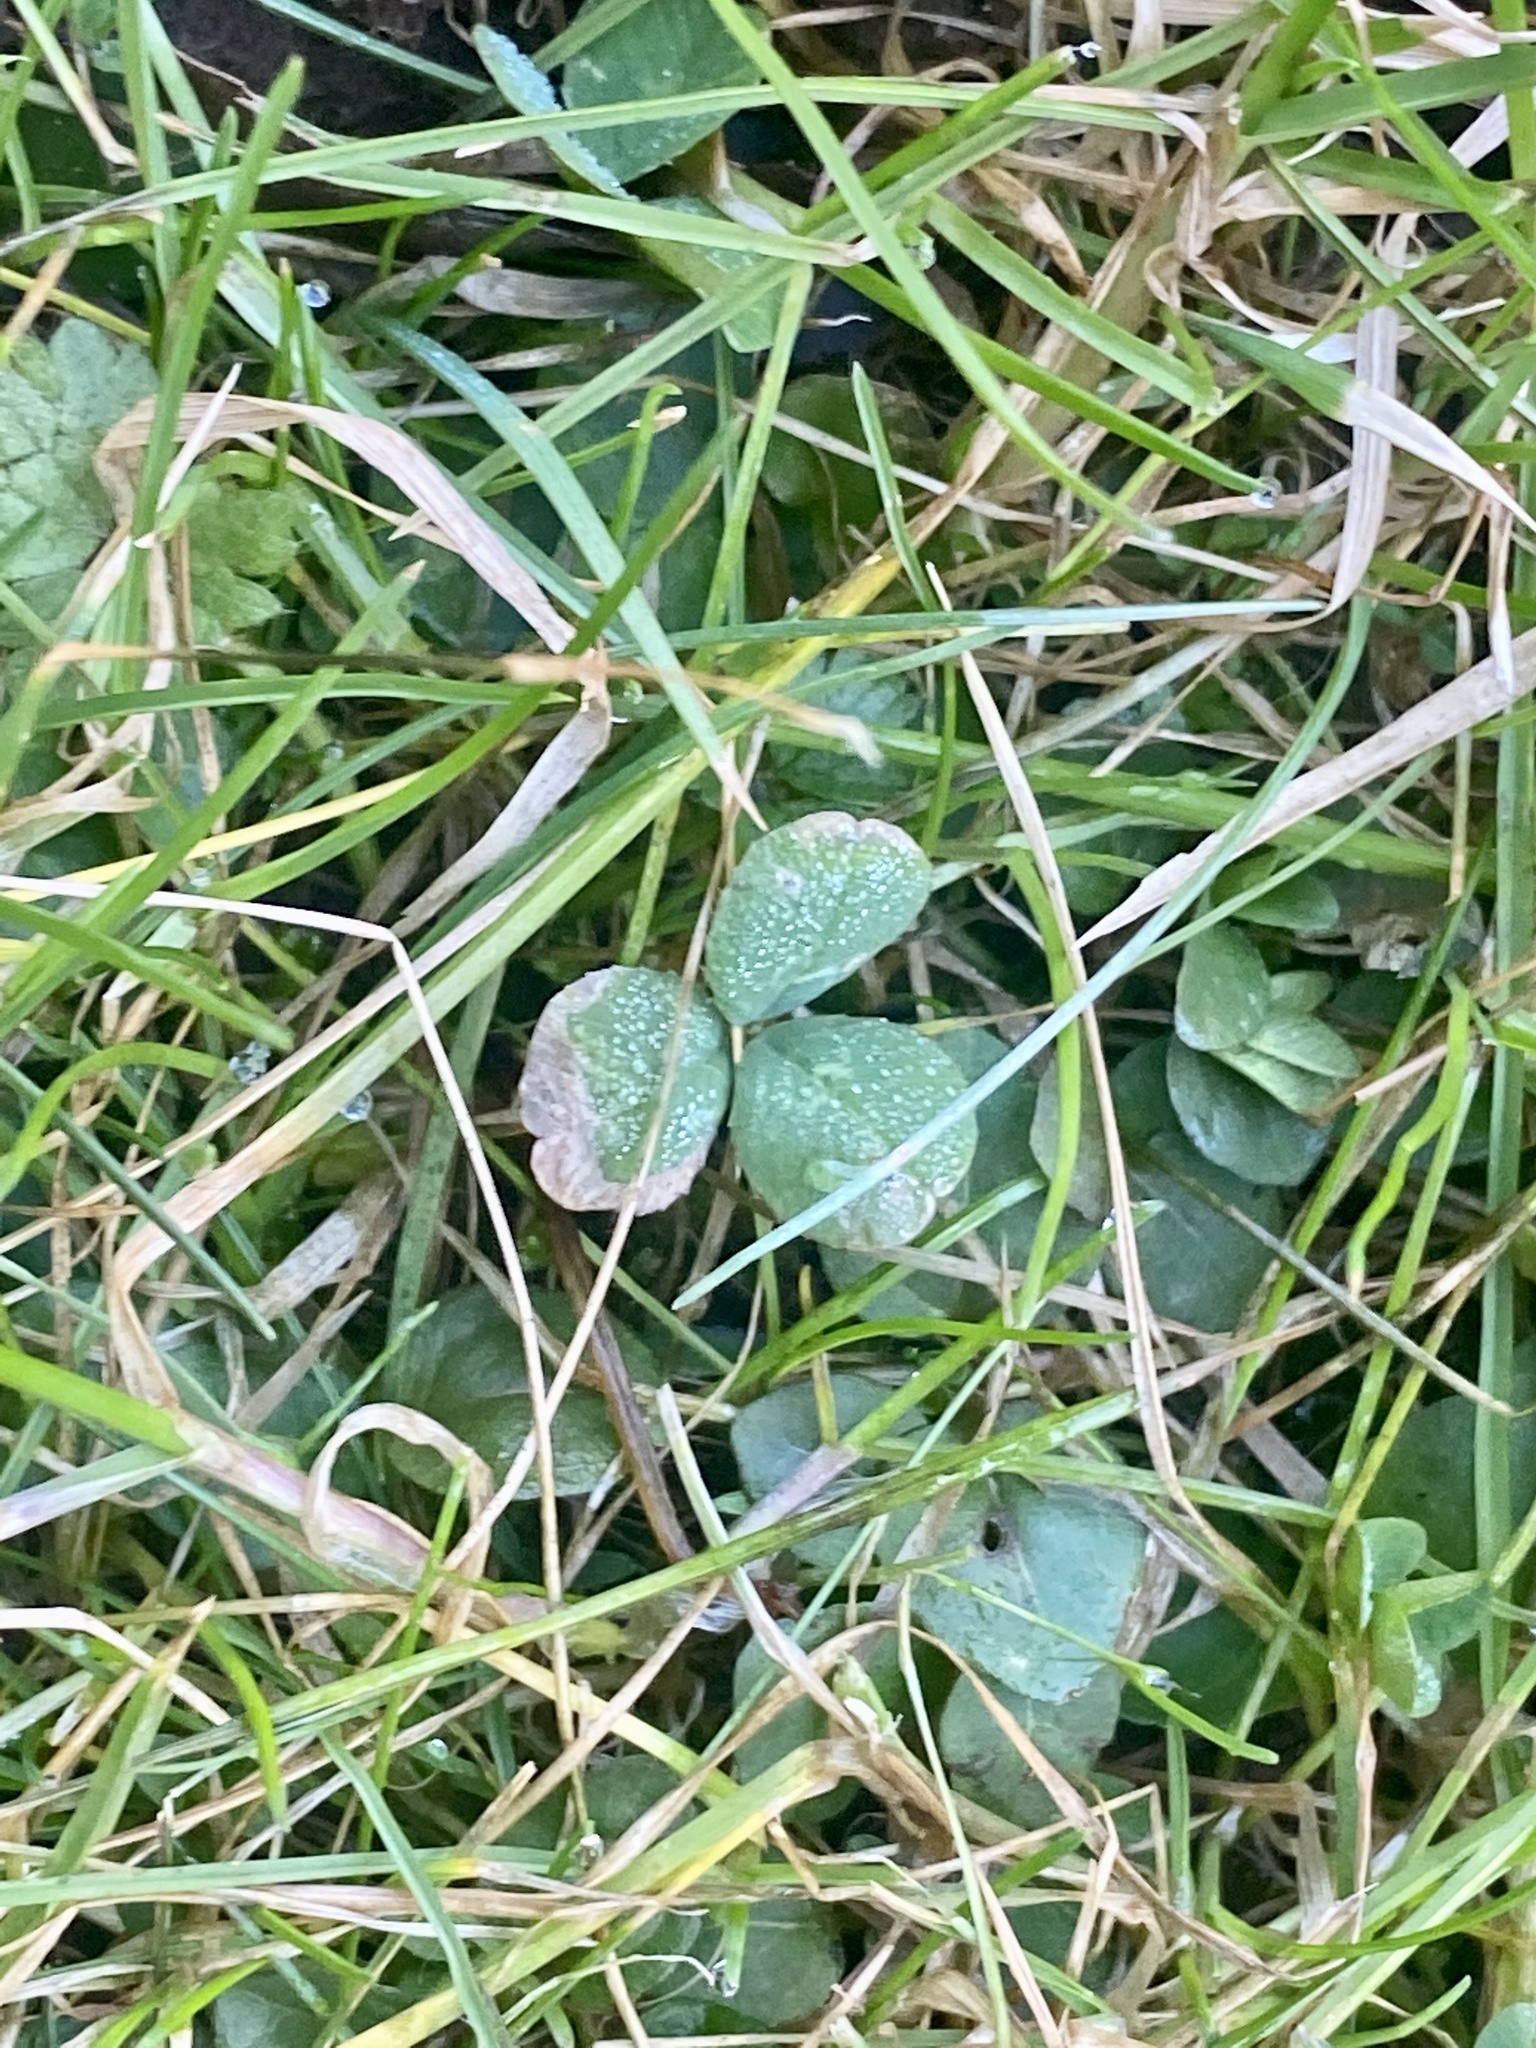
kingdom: Plantae
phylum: Tracheophyta
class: Magnoliopsida
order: Fabales
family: Fabaceae
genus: Trifolium
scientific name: Trifolium repens
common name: White clover
